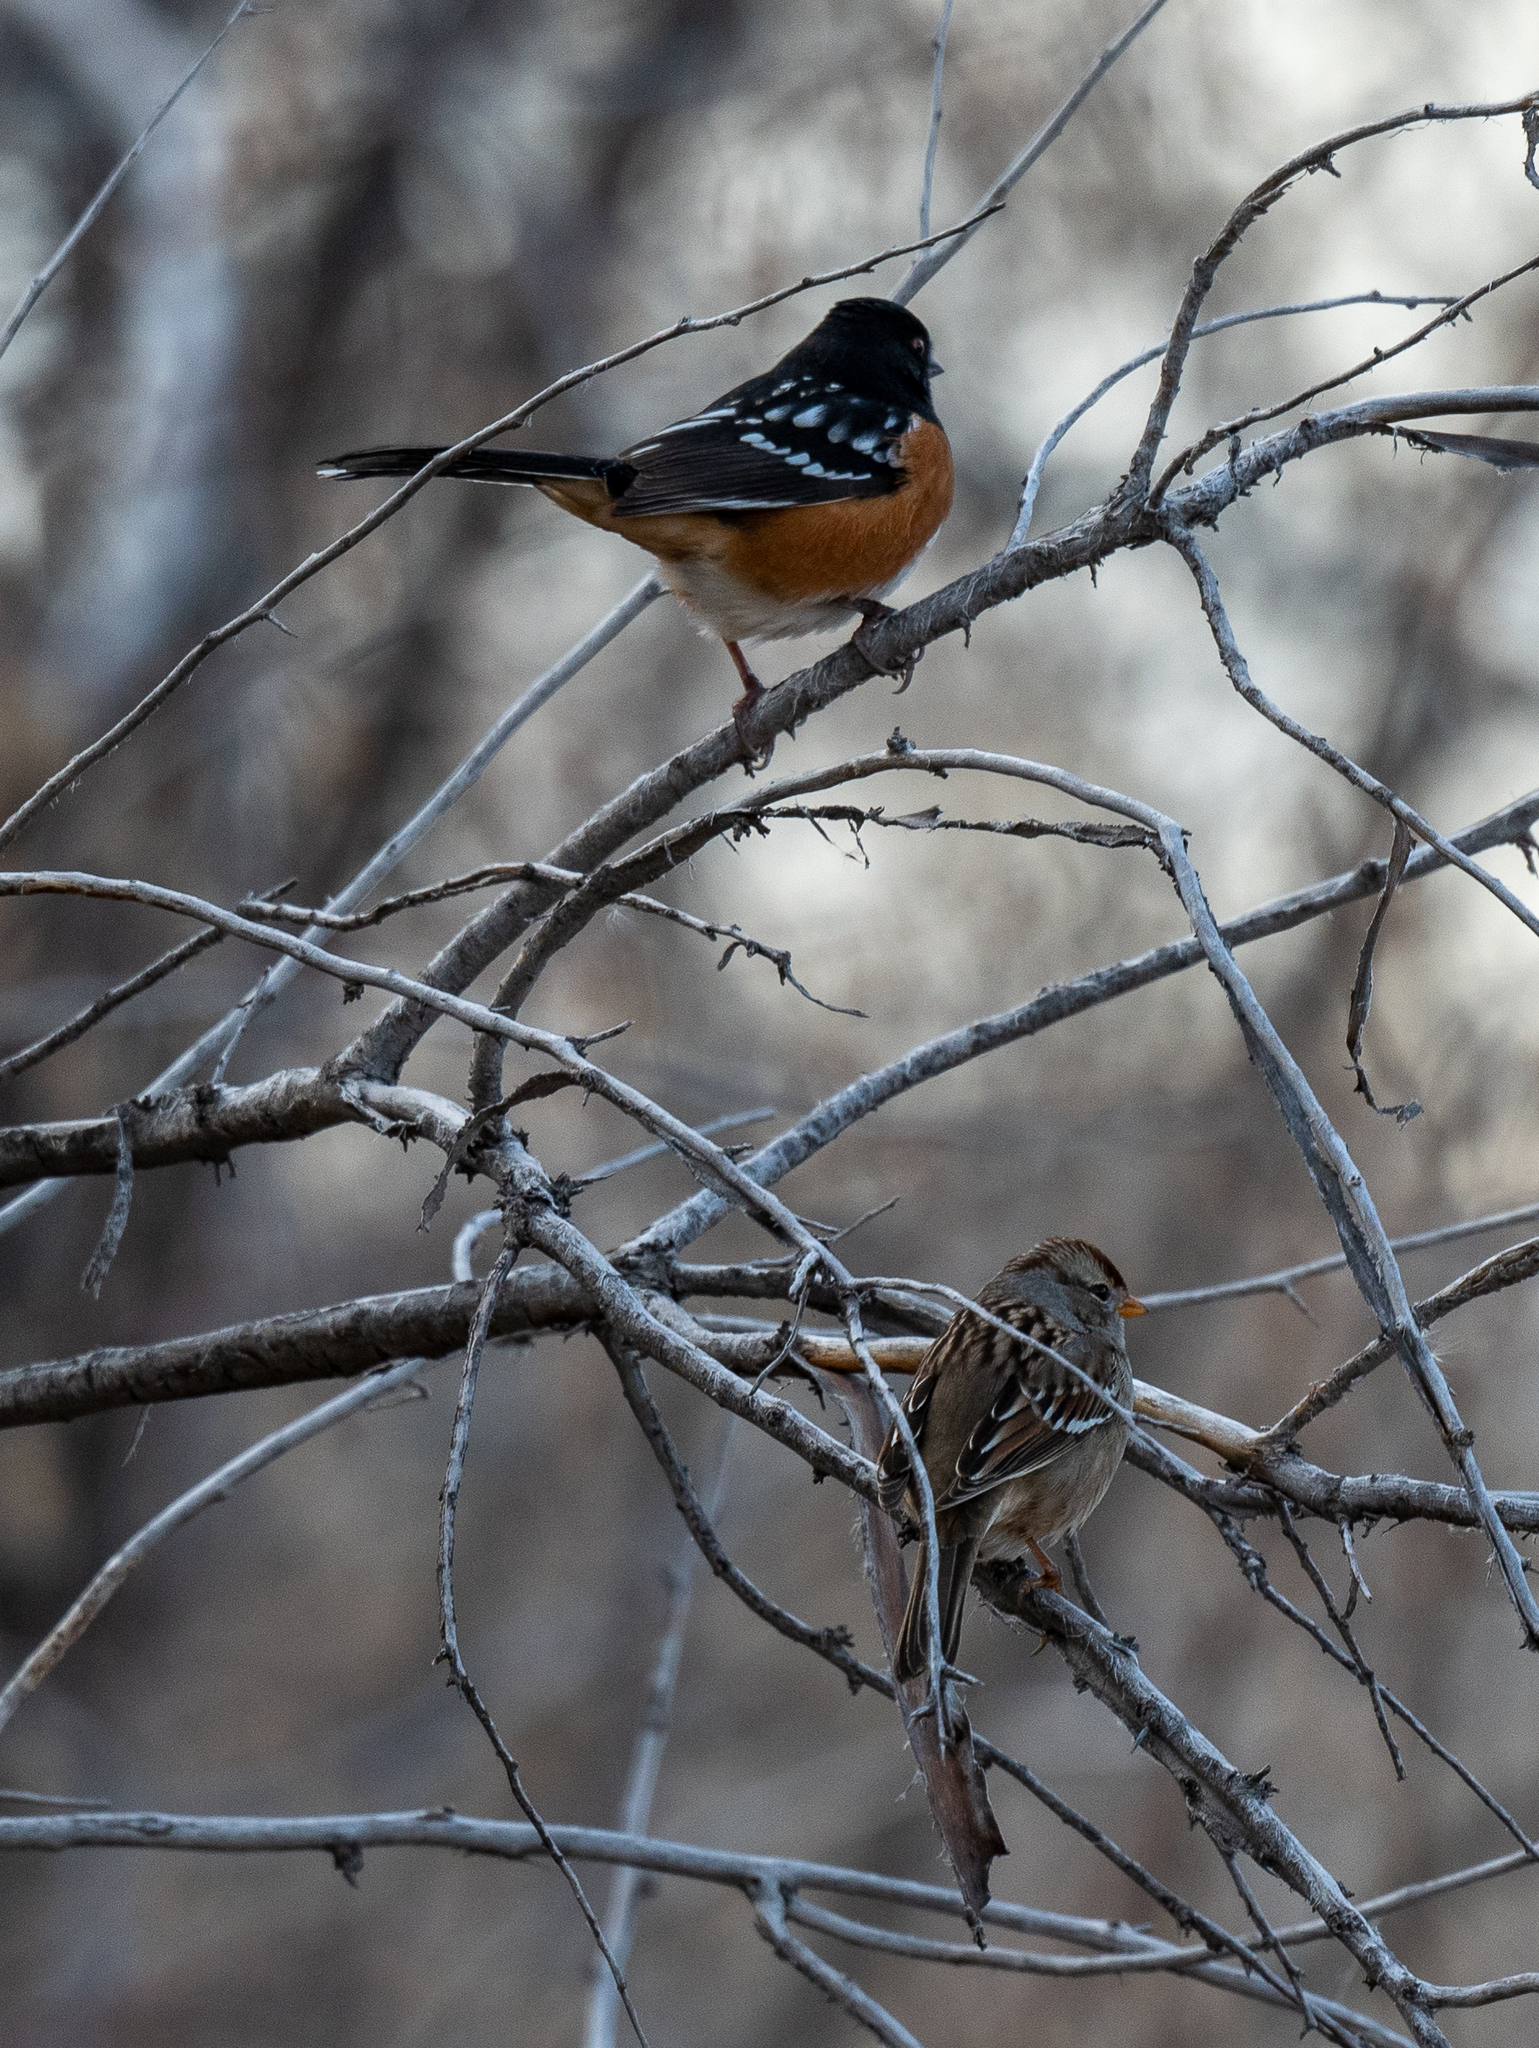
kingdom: Animalia
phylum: Chordata
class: Aves
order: Passeriformes
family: Passerellidae
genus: Pipilo
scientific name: Pipilo maculatus
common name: Spotted towhee
